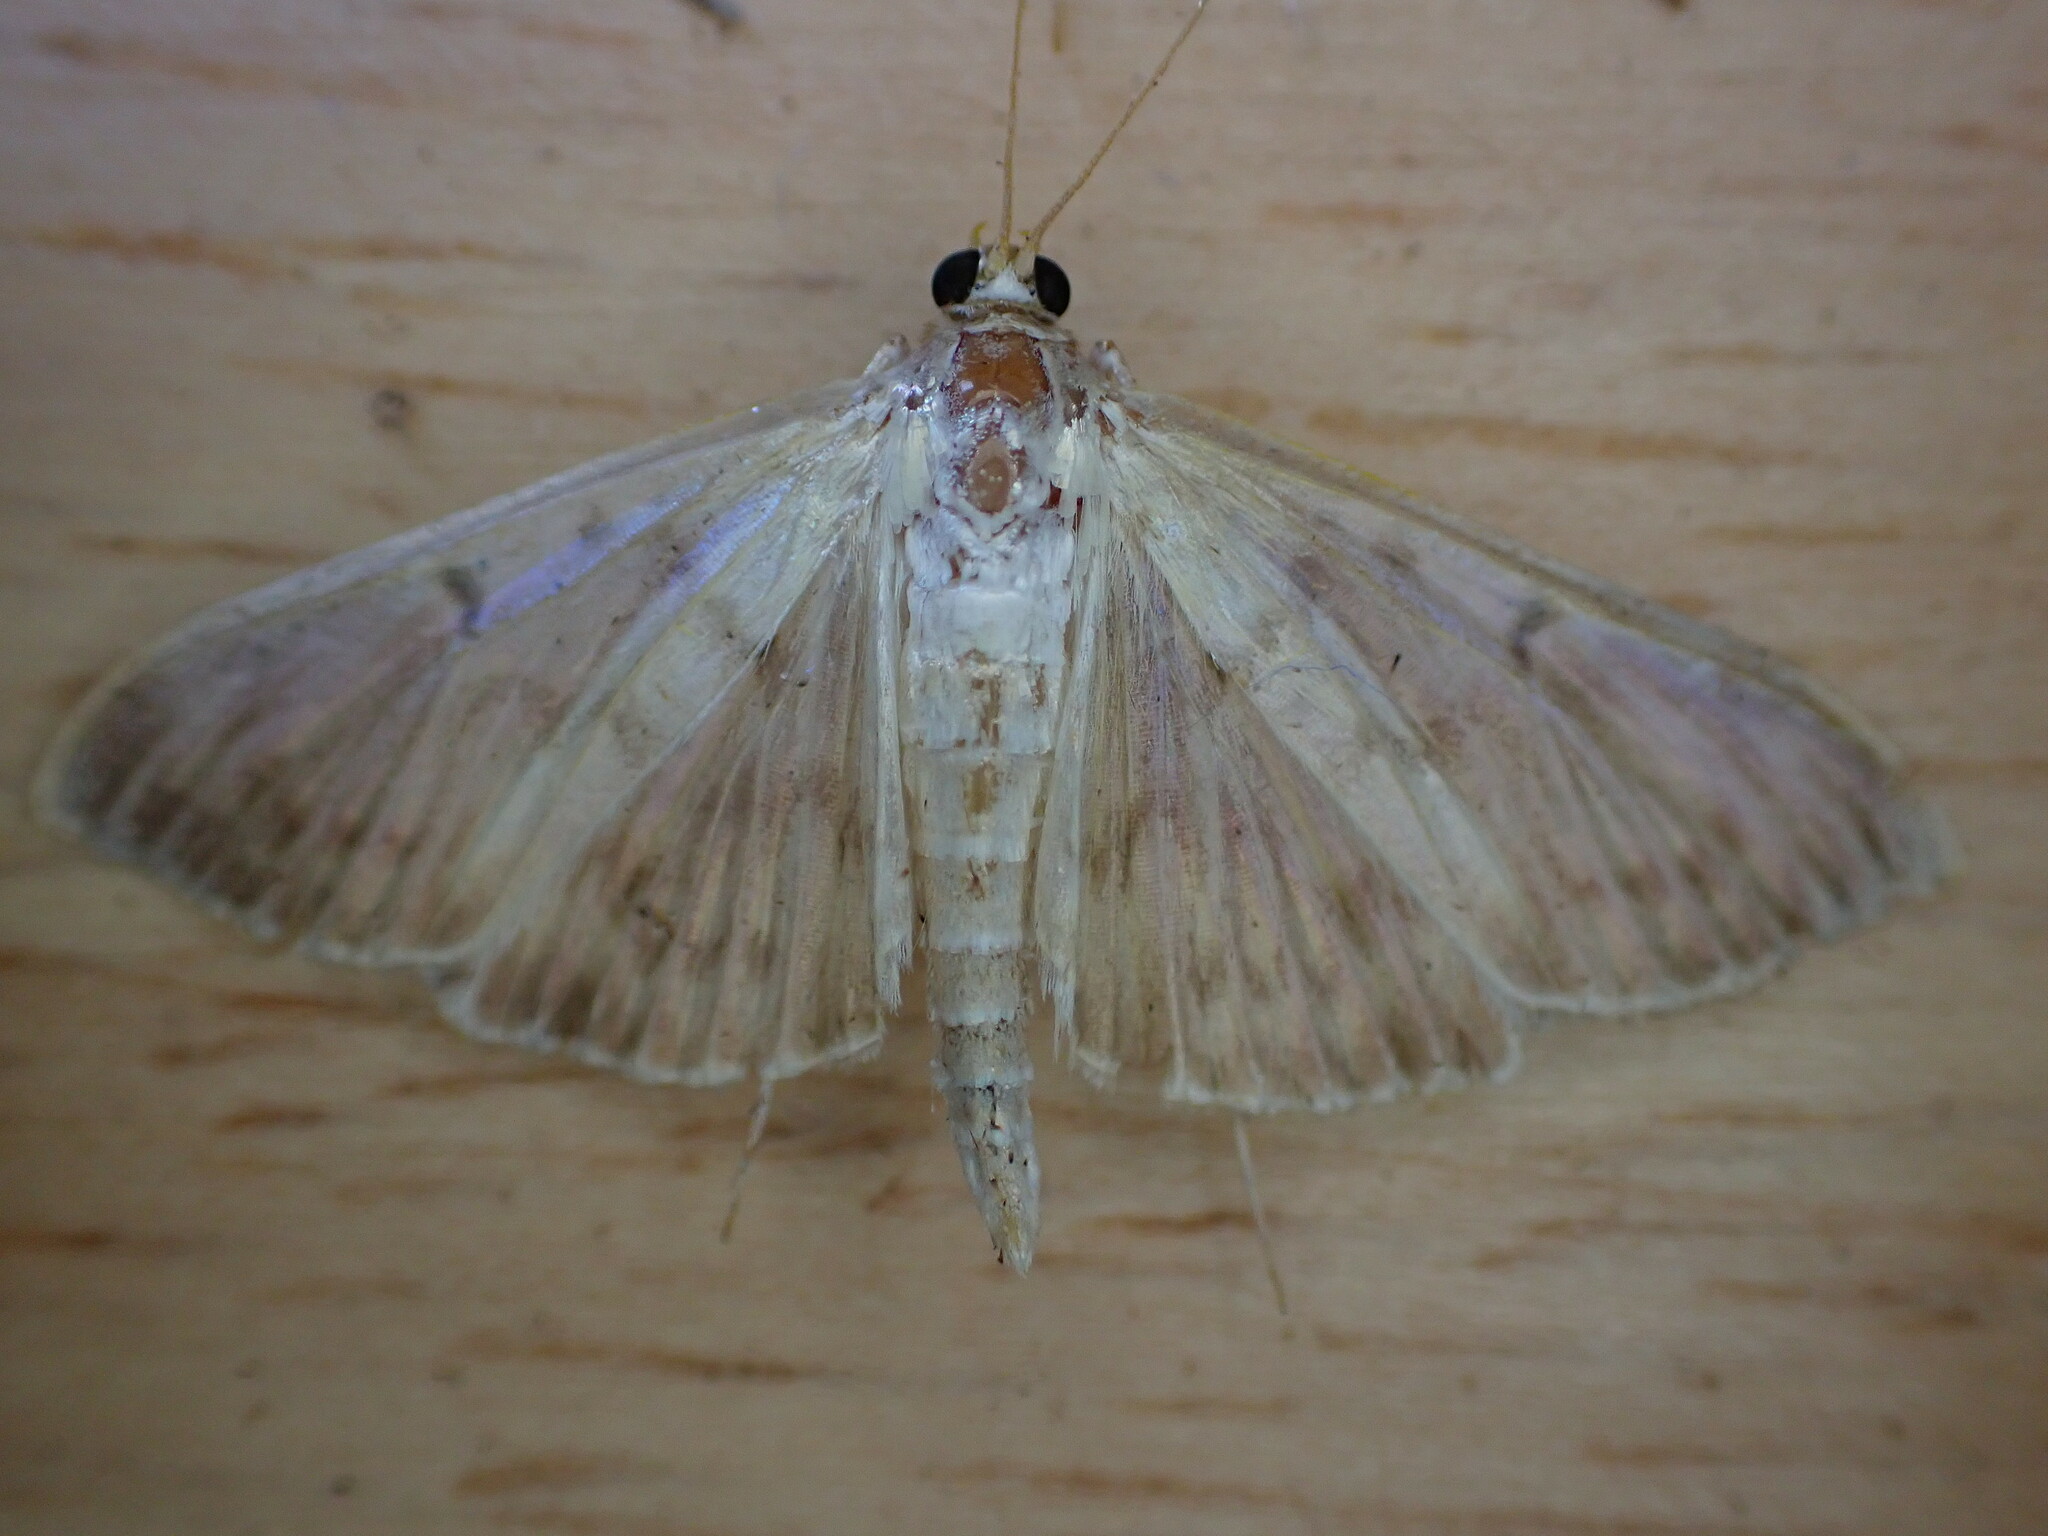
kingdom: Animalia
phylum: Arthropoda
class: Insecta
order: Lepidoptera
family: Crambidae
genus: Patania
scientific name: Patania ruralis
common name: Mother of pearl
